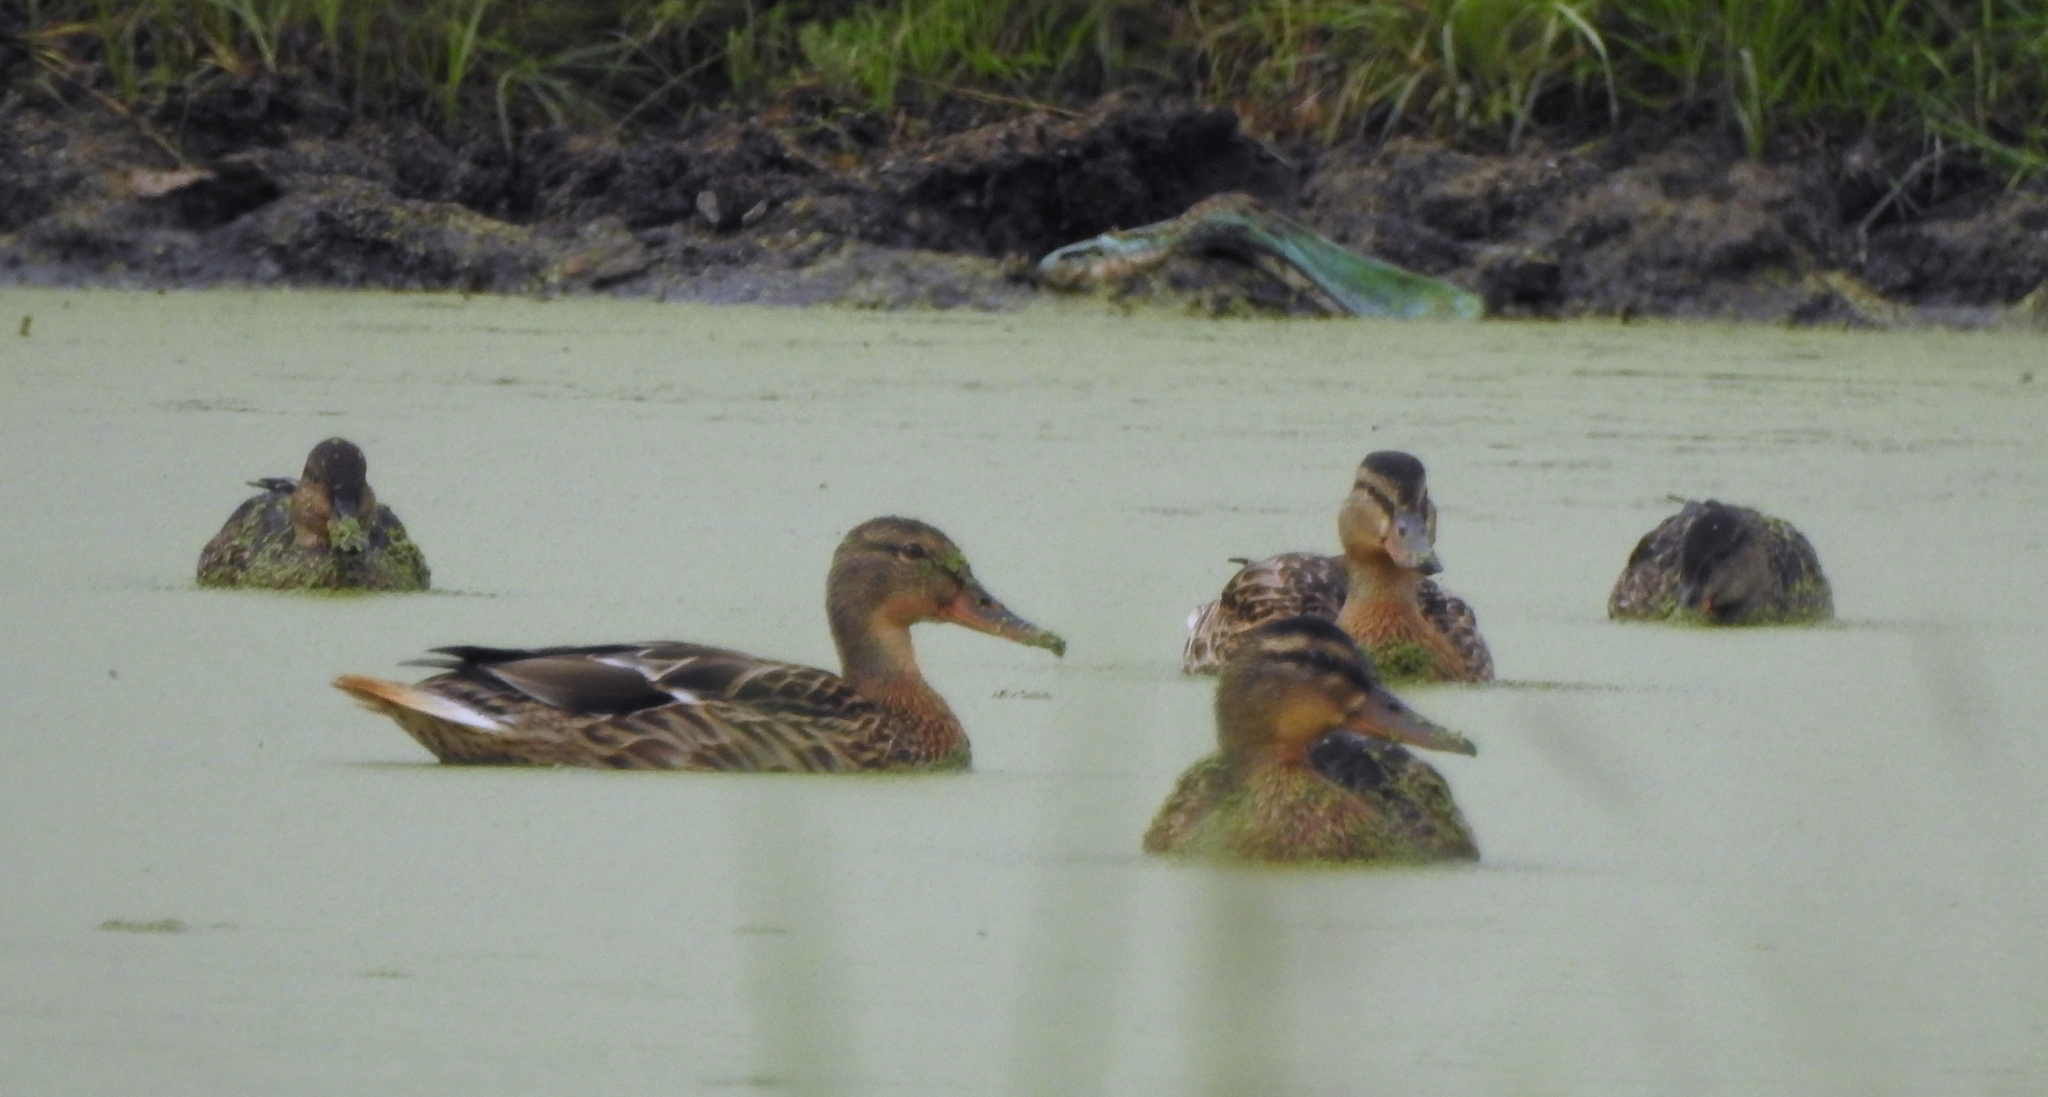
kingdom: Animalia
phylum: Chordata
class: Aves
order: Anseriformes
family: Anatidae
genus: Anas
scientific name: Anas platyrhynchos
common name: Mallard
